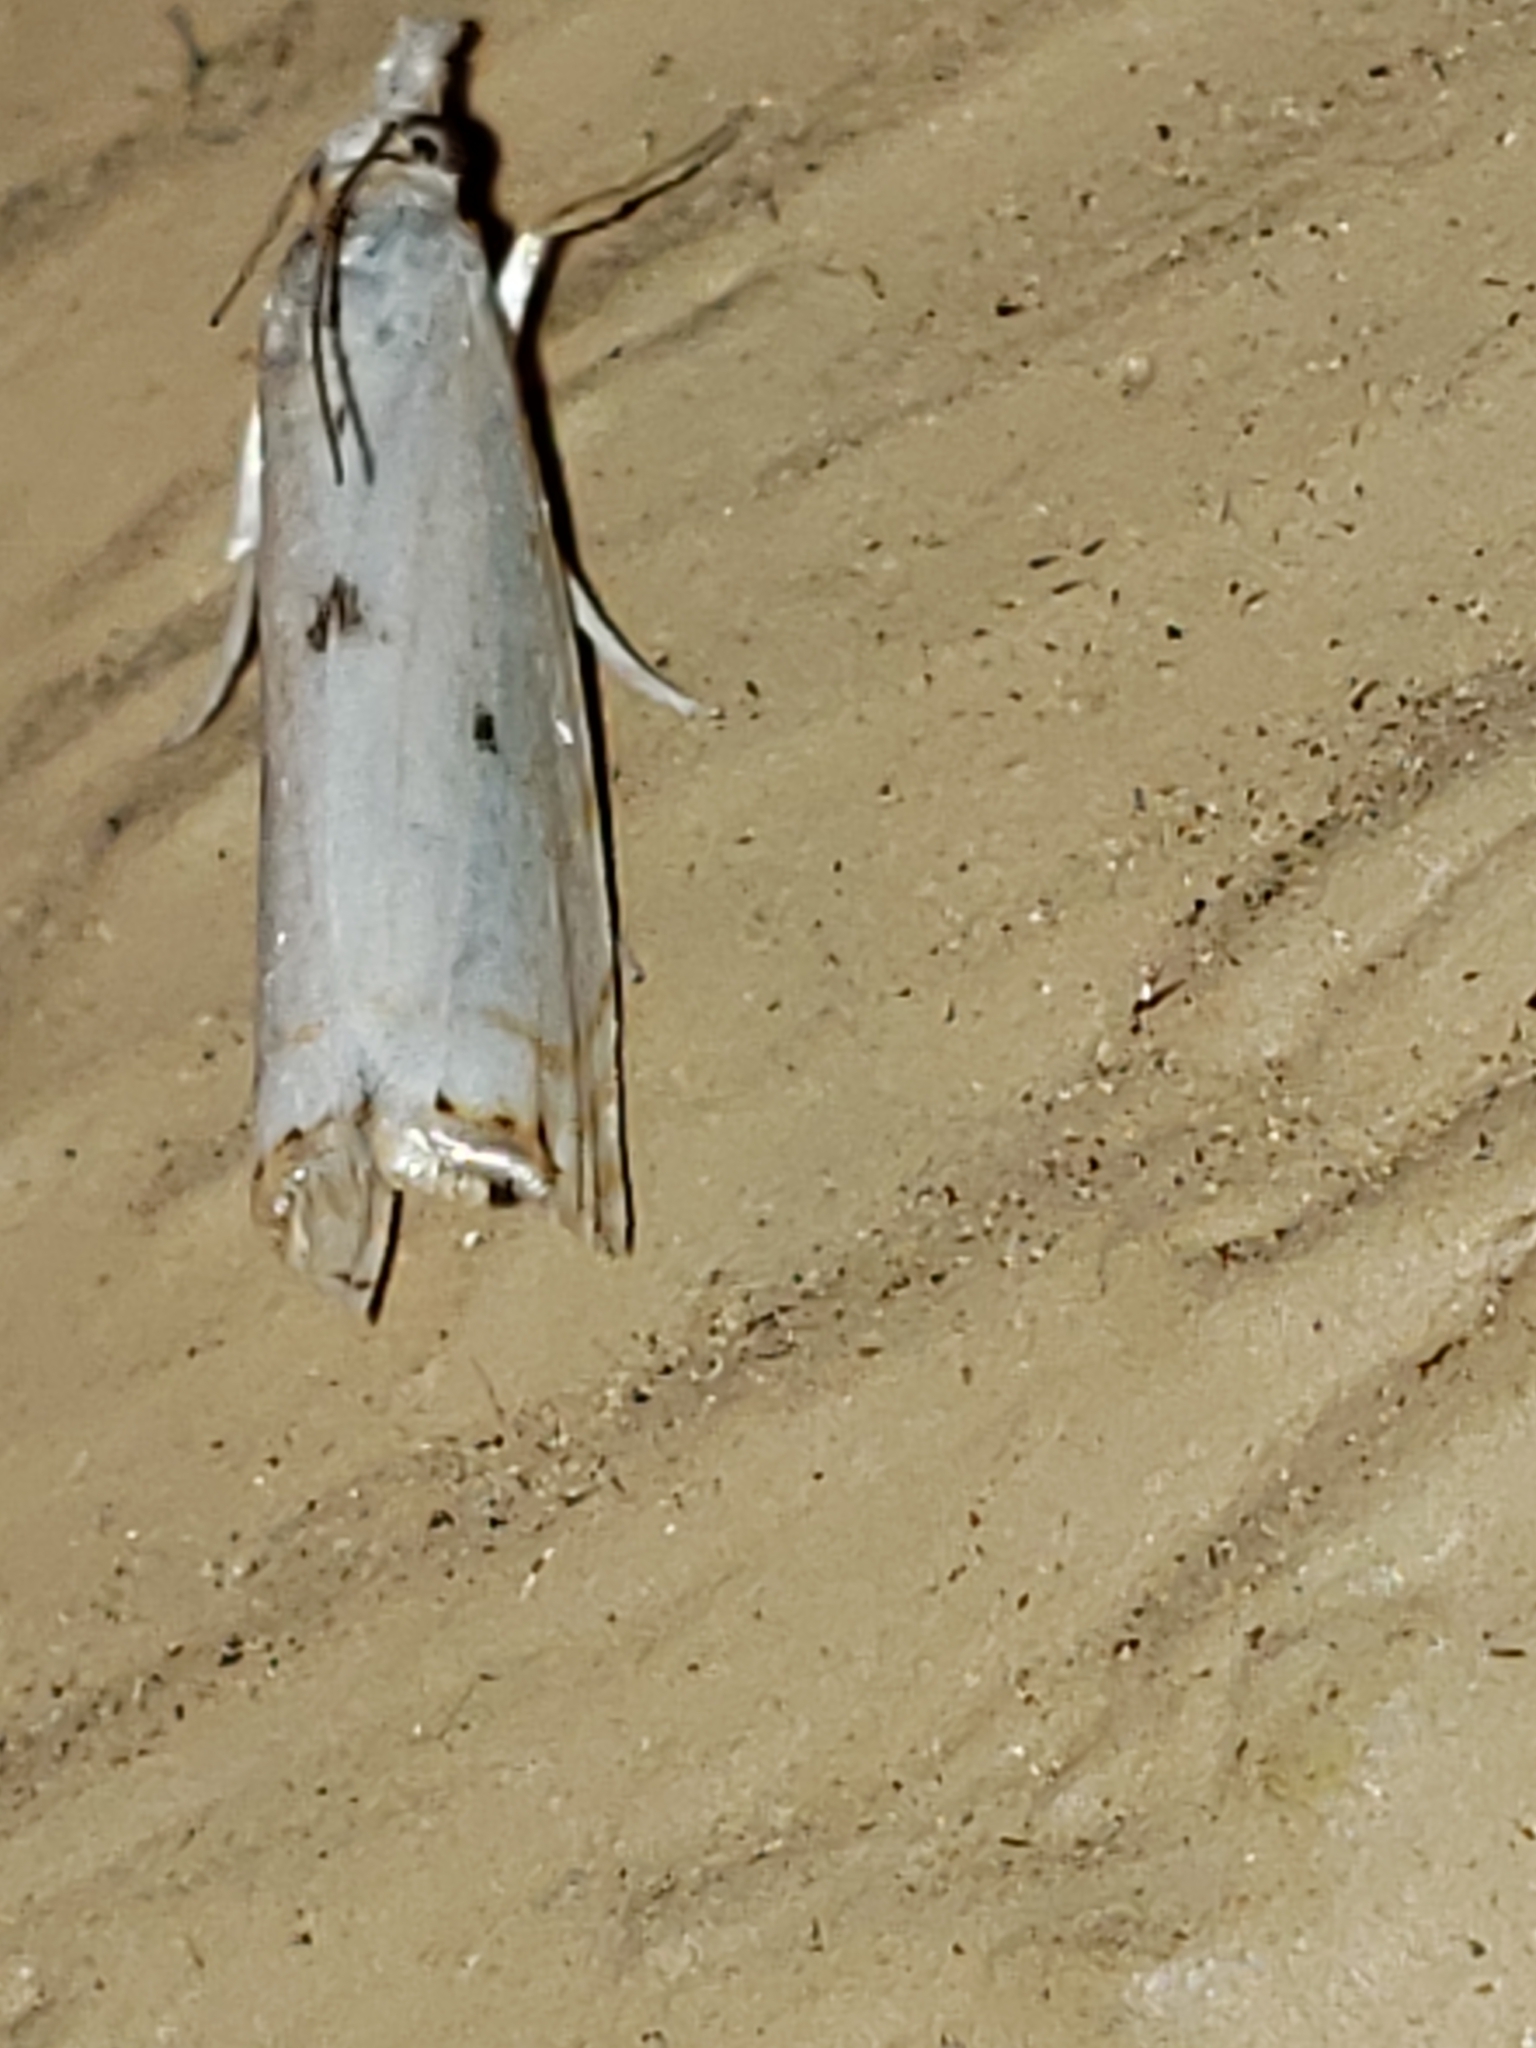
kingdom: Animalia
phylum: Arthropoda
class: Insecta
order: Lepidoptera
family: Crambidae
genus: Microcrambus
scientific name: Microcrambus biguttellus
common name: Gold-stripe grass-veneer moth
